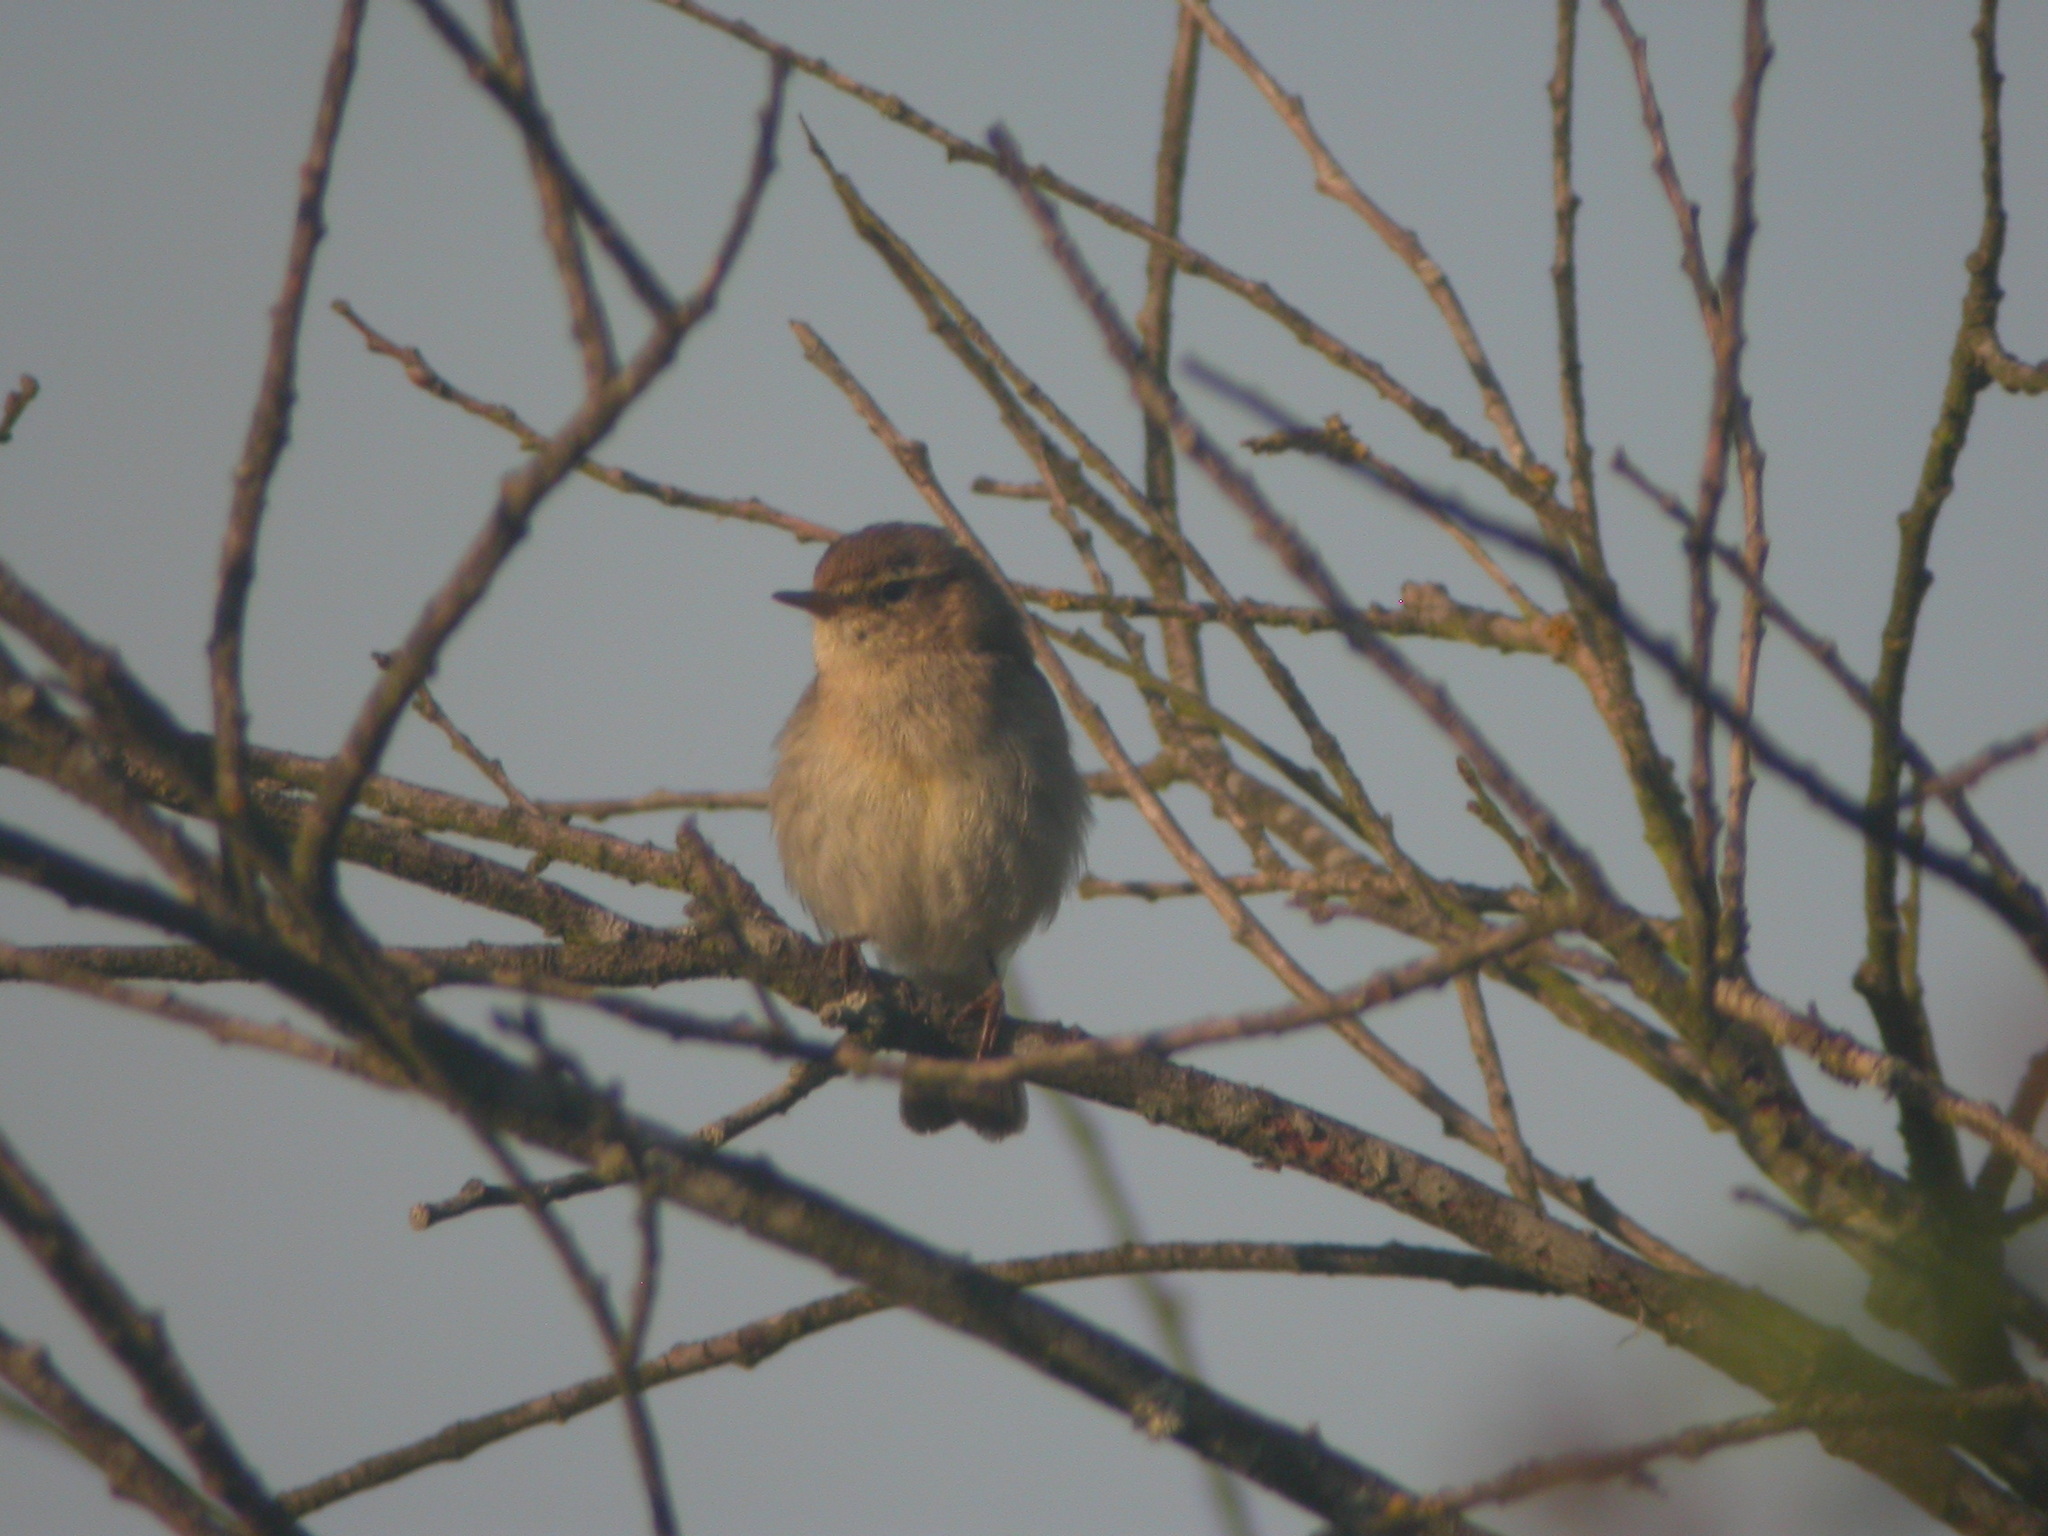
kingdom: Animalia
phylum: Chordata
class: Aves
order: Passeriformes
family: Phylloscopidae
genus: Phylloscopus
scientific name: Phylloscopus collybita
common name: Common chiffchaff
